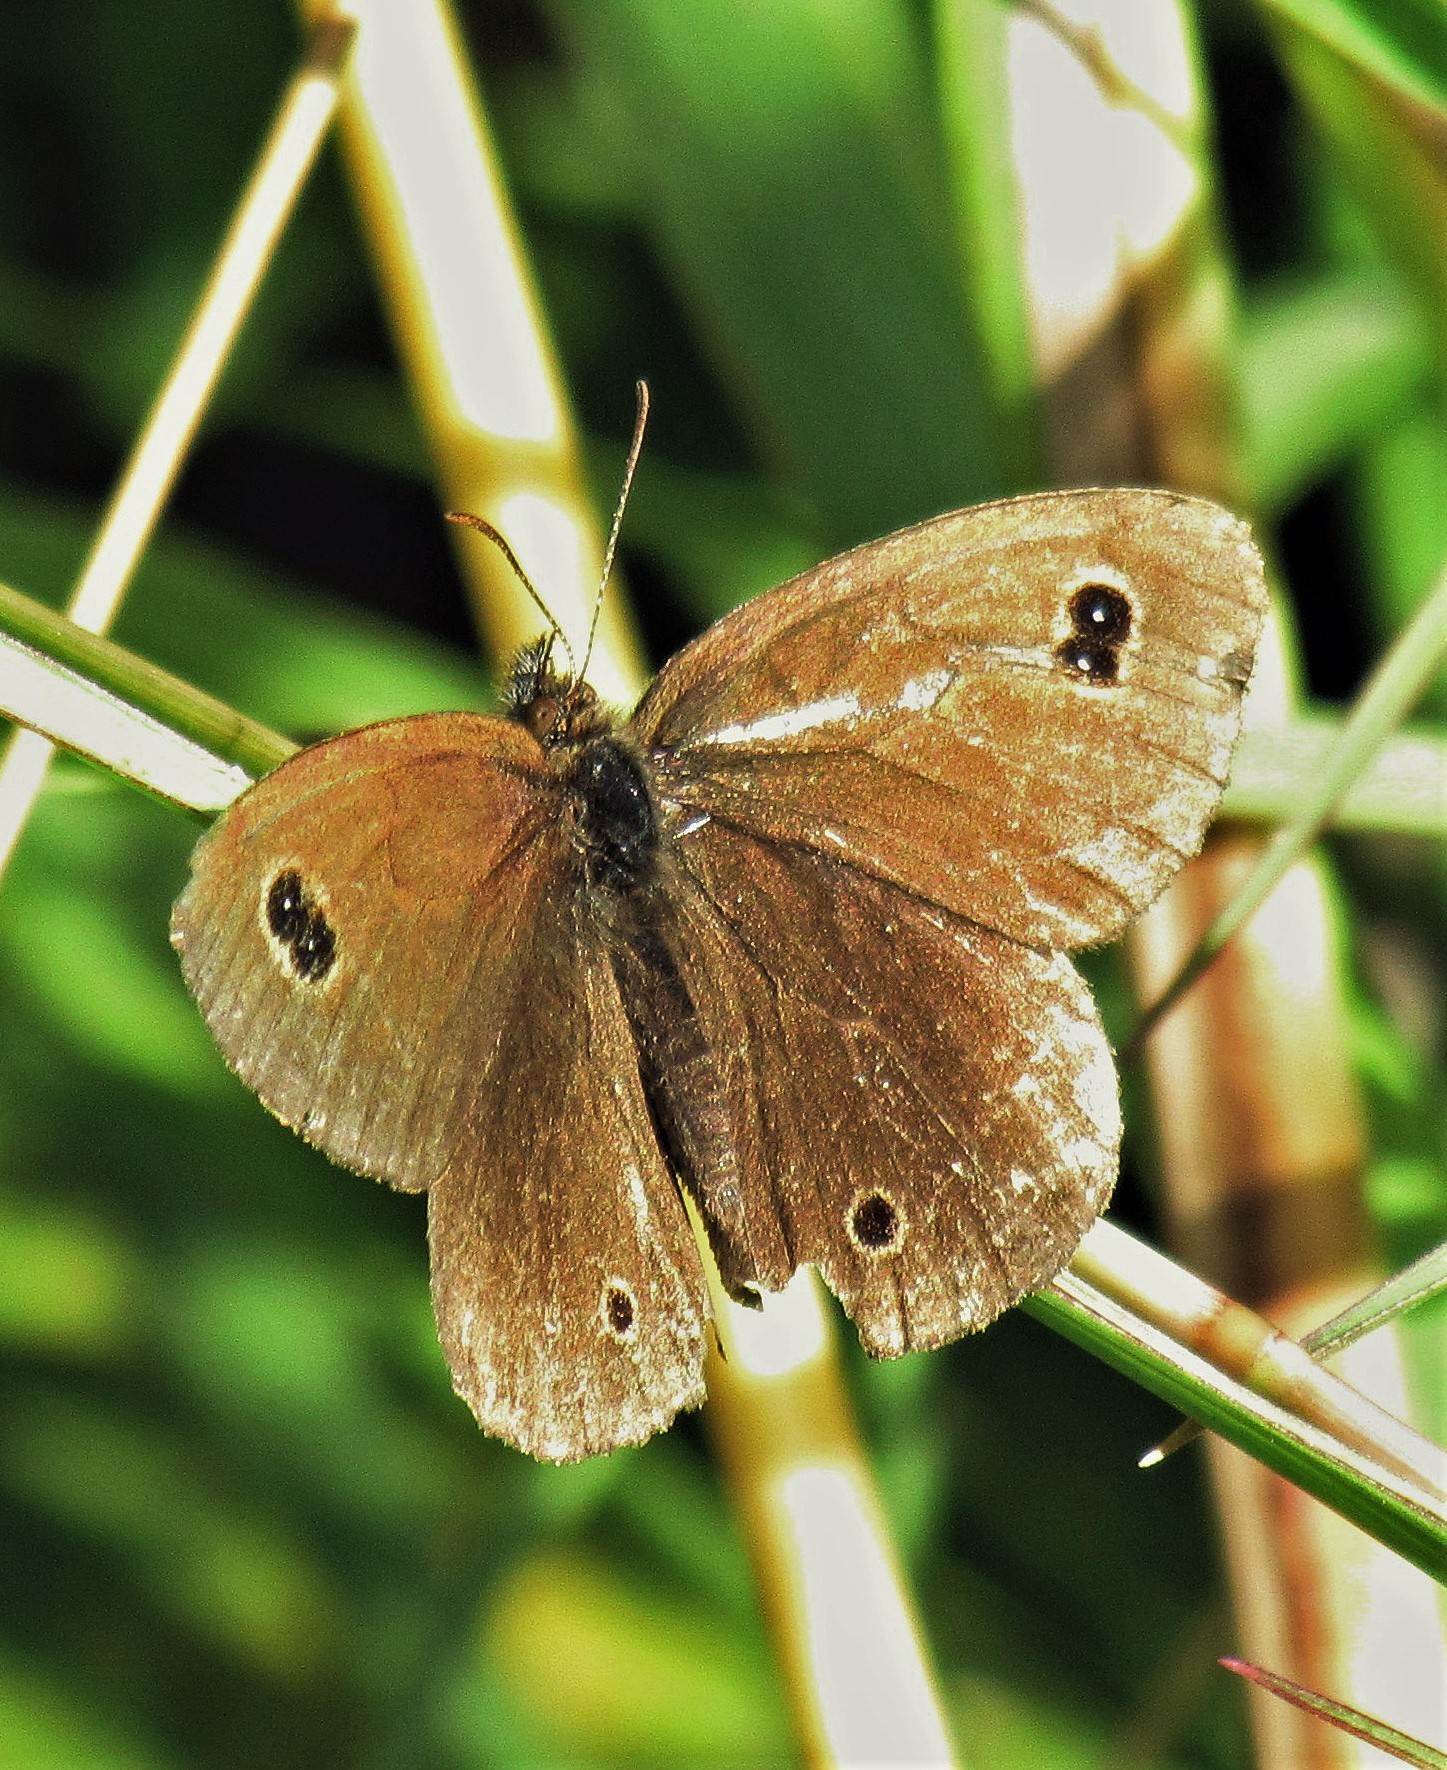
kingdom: Animalia
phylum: Arthropoda
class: Insecta
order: Lepidoptera
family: Nymphalidae
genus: Maniola
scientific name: Maniola imbrialis
